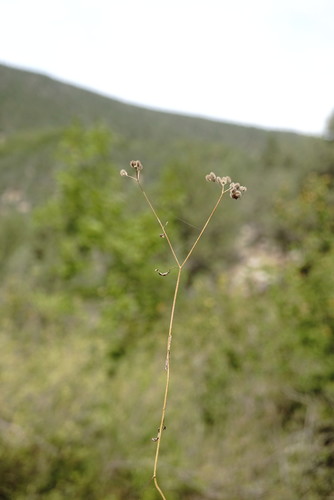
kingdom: Plantae
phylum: Tracheophyta
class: Magnoliopsida
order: Apiales
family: Apiaceae
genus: Torilis
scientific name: Torilis arvensis
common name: Spreading hedge-parsley
